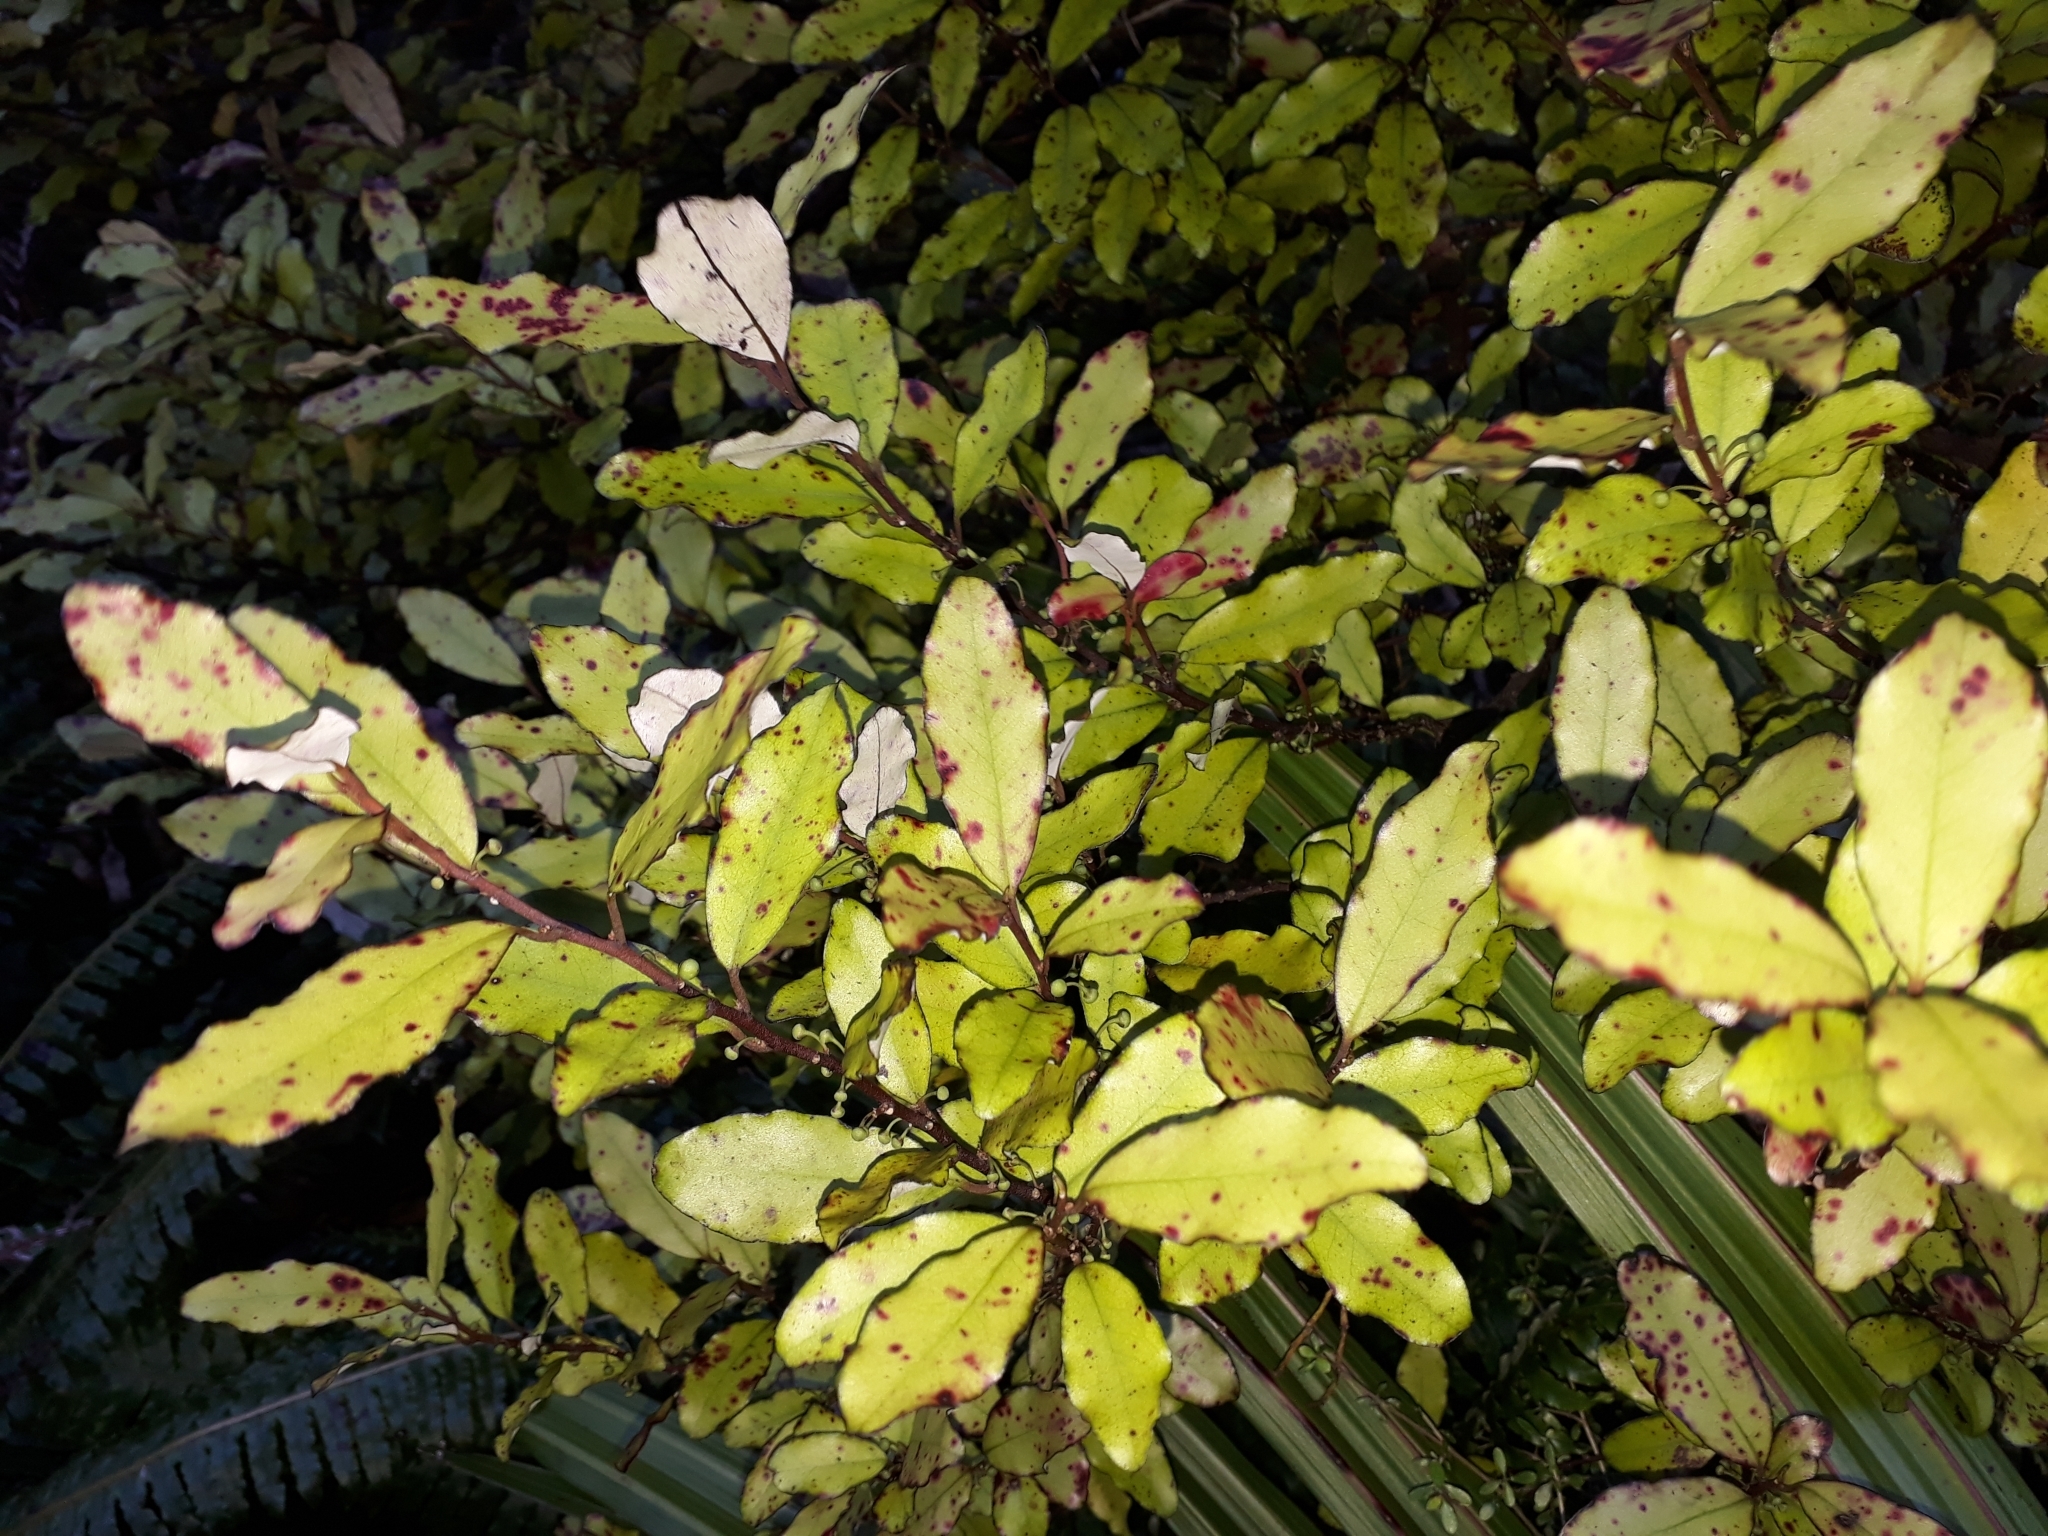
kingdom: Plantae
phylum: Tracheophyta
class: Magnoliopsida
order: Canellales
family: Winteraceae
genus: Pseudowintera
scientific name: Pseudowintera colorata
